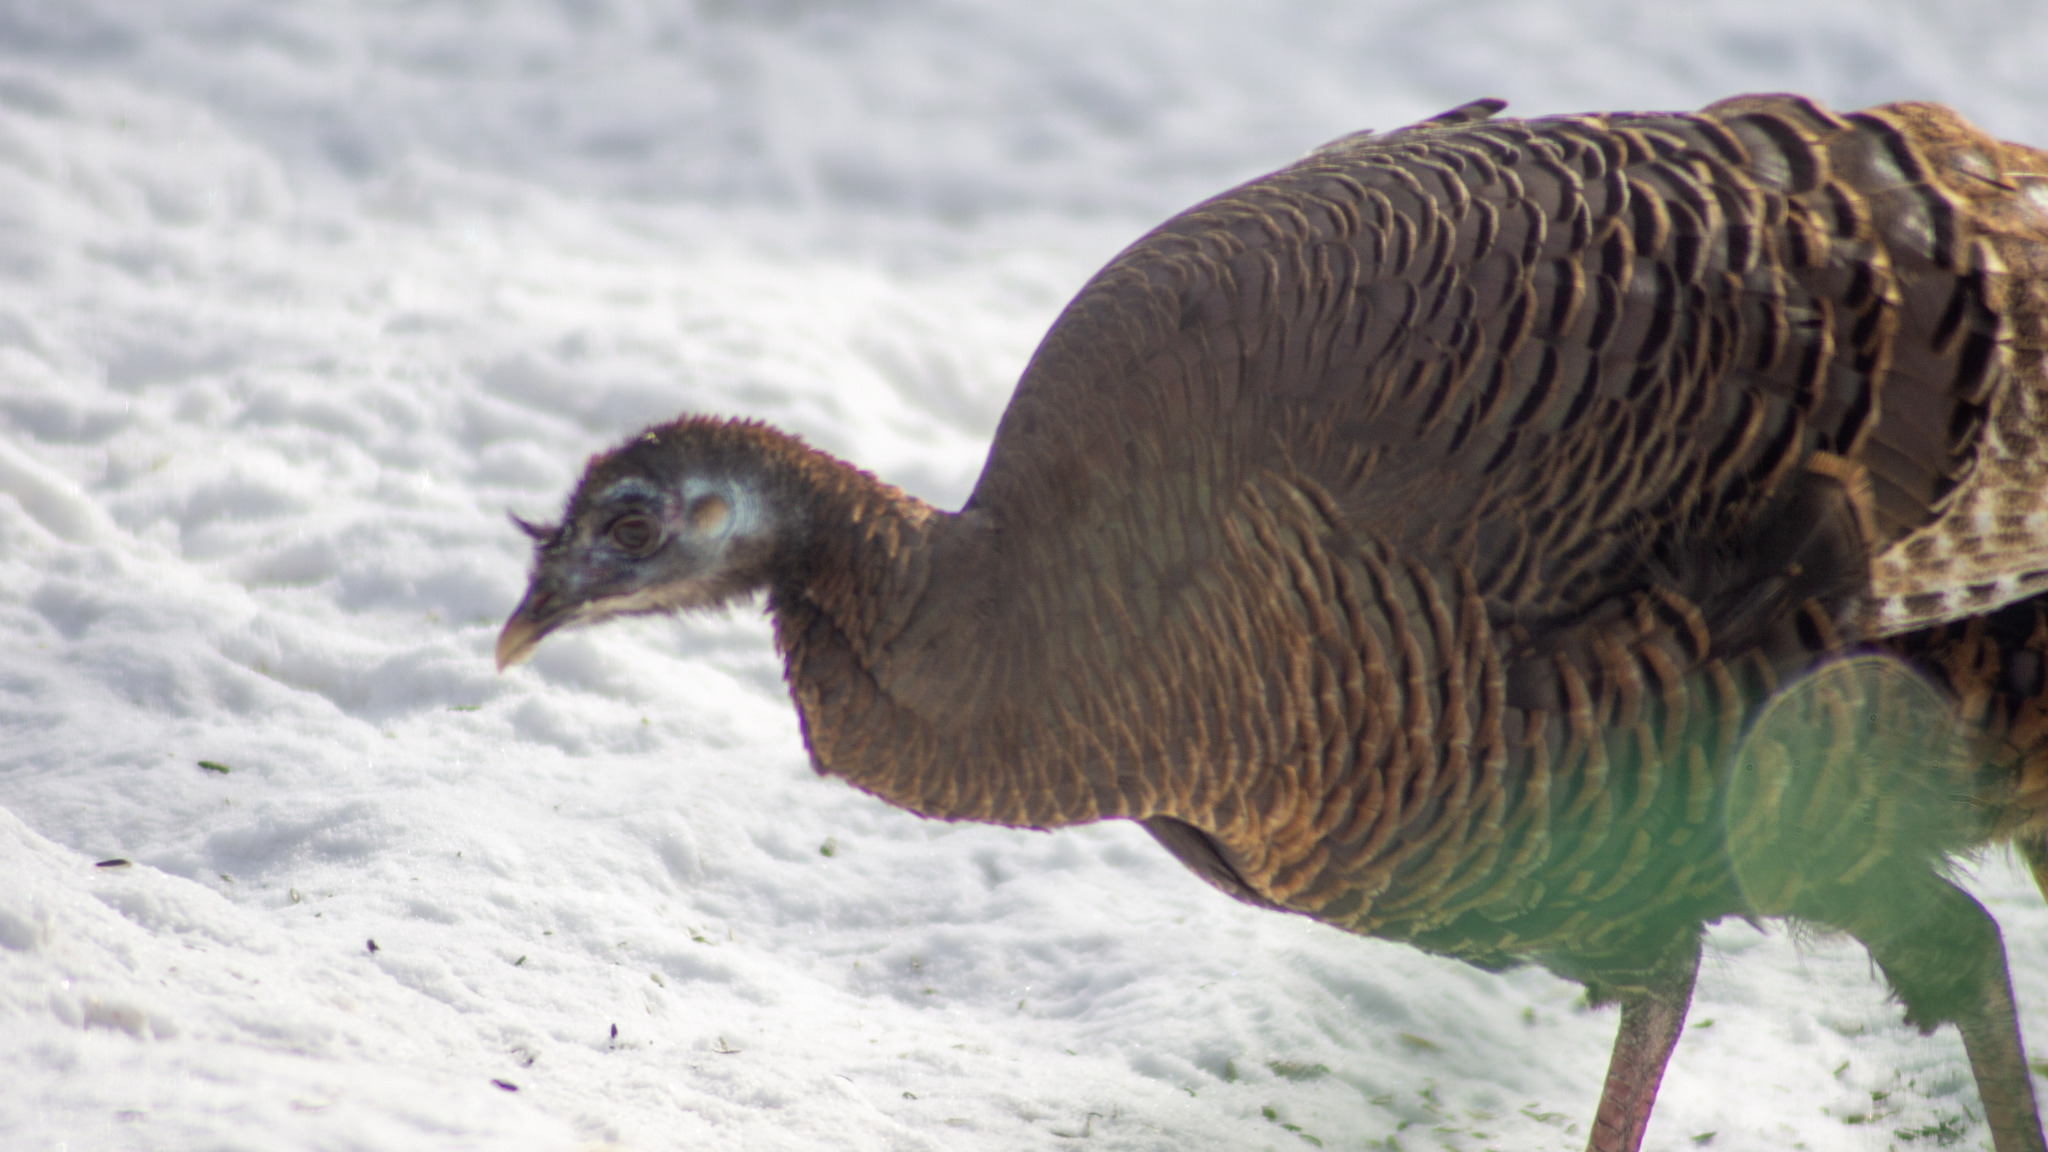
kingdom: Animalia
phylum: Chordata
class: Aves
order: Galliformes
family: Phasianidae
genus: Meleagris
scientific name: Meleagris gallopavo
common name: Wild turkey
